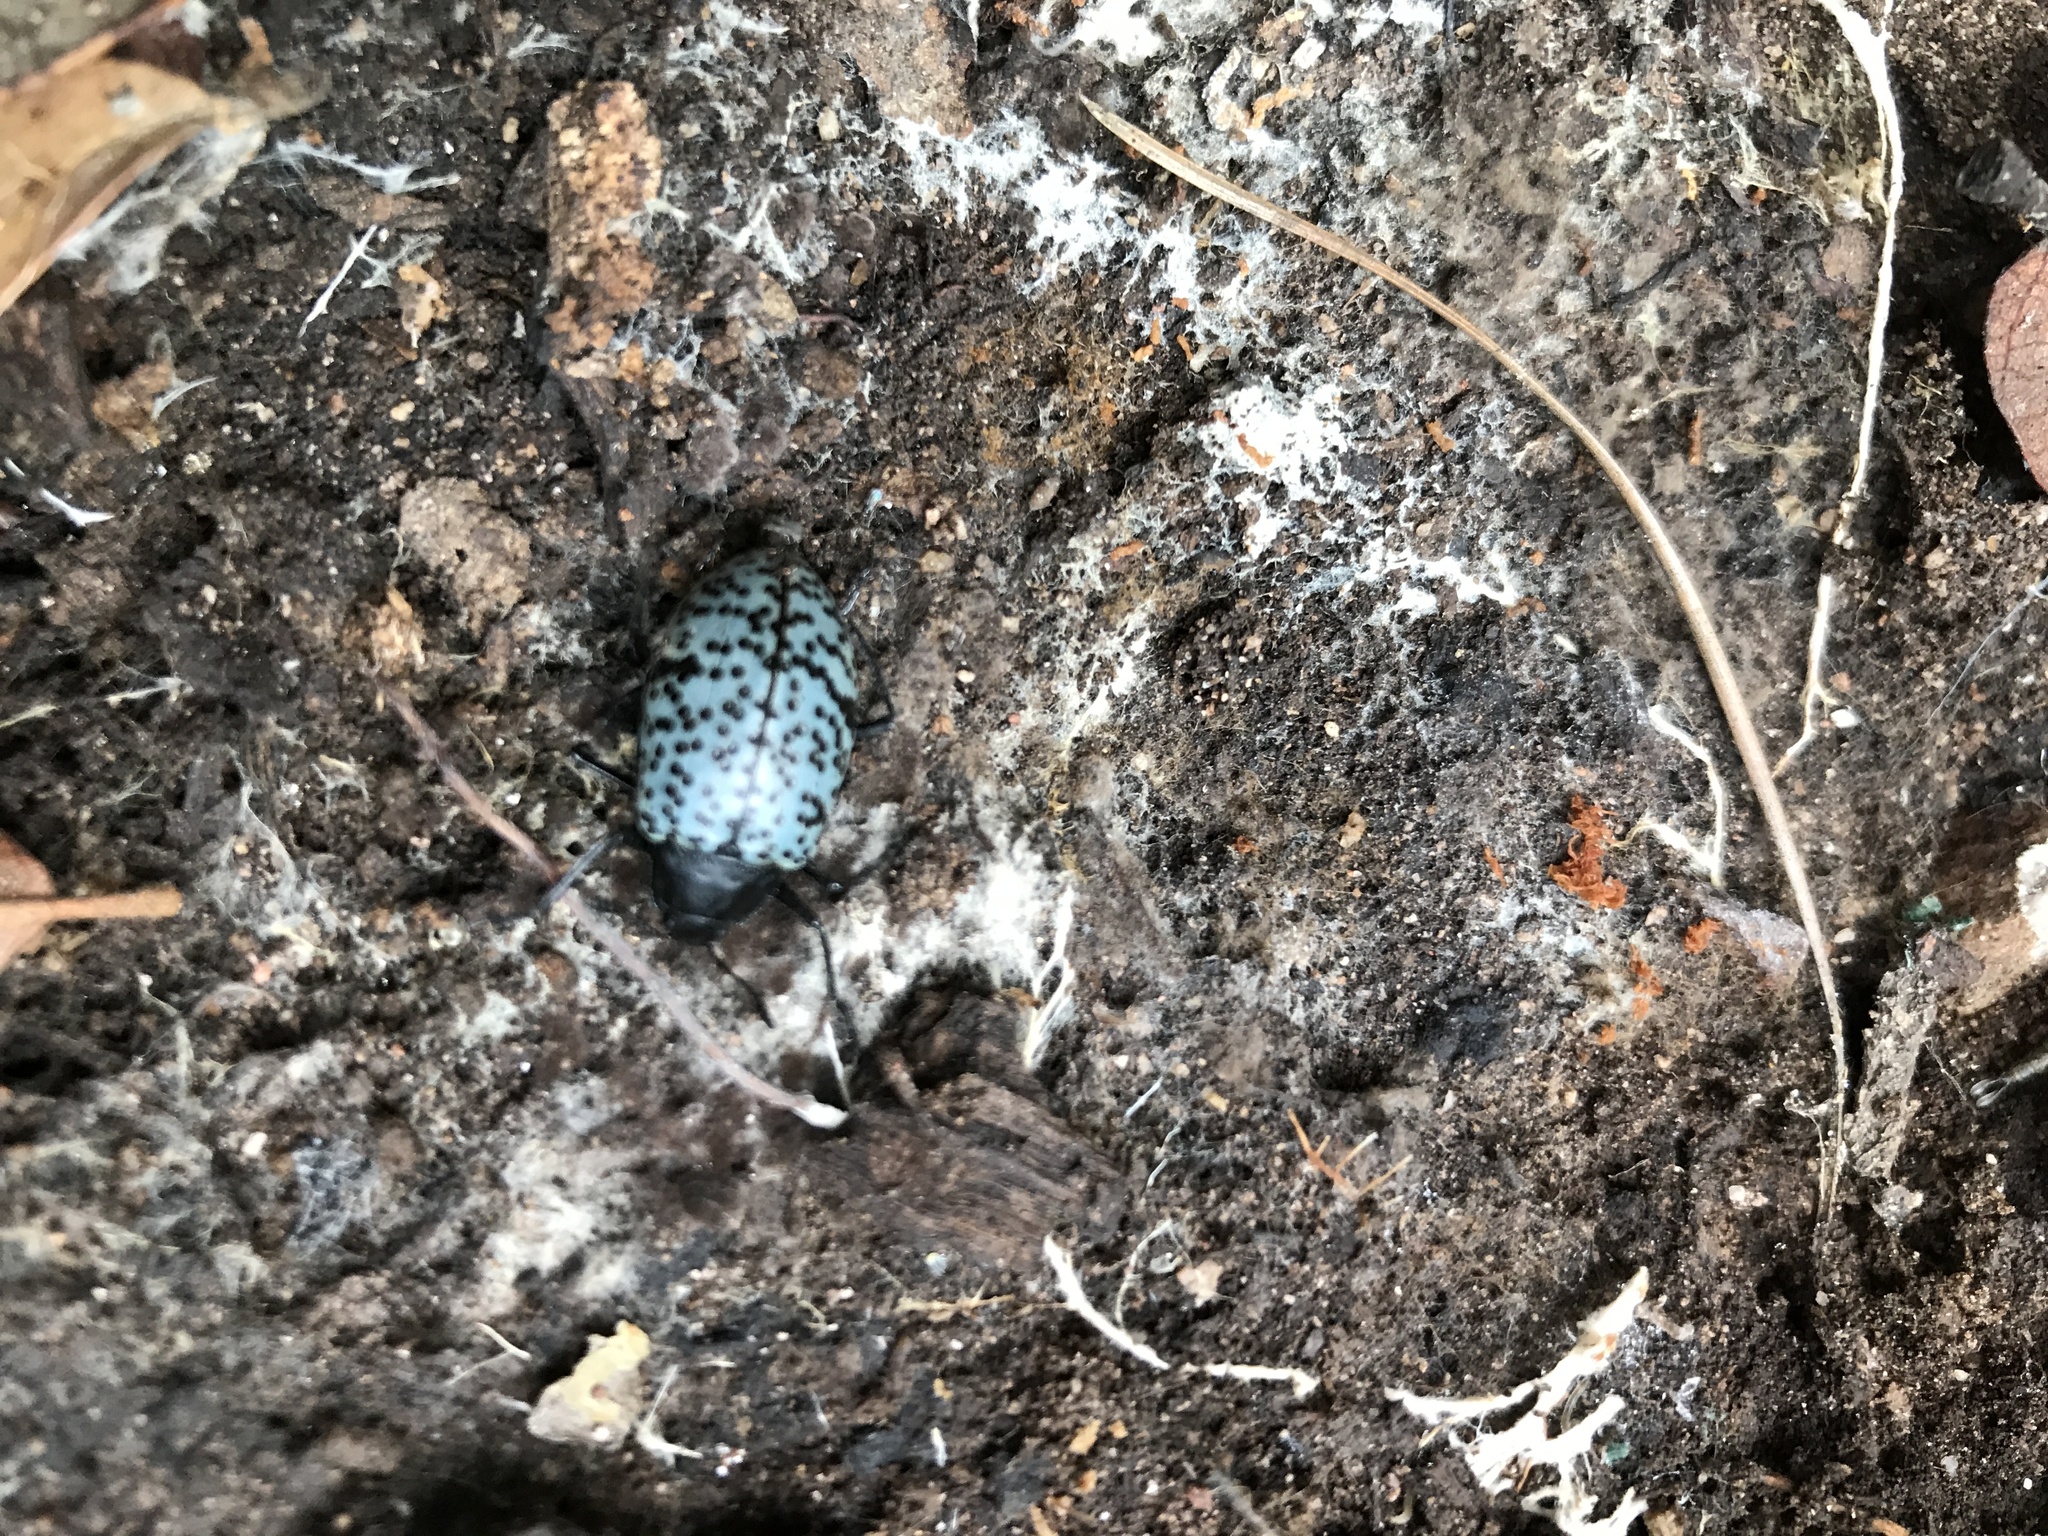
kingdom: Animalia
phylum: Arthropoda
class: Insecta
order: Coleoptera
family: Erotylidae
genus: Gibbifer
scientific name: Gibbifer californicus
